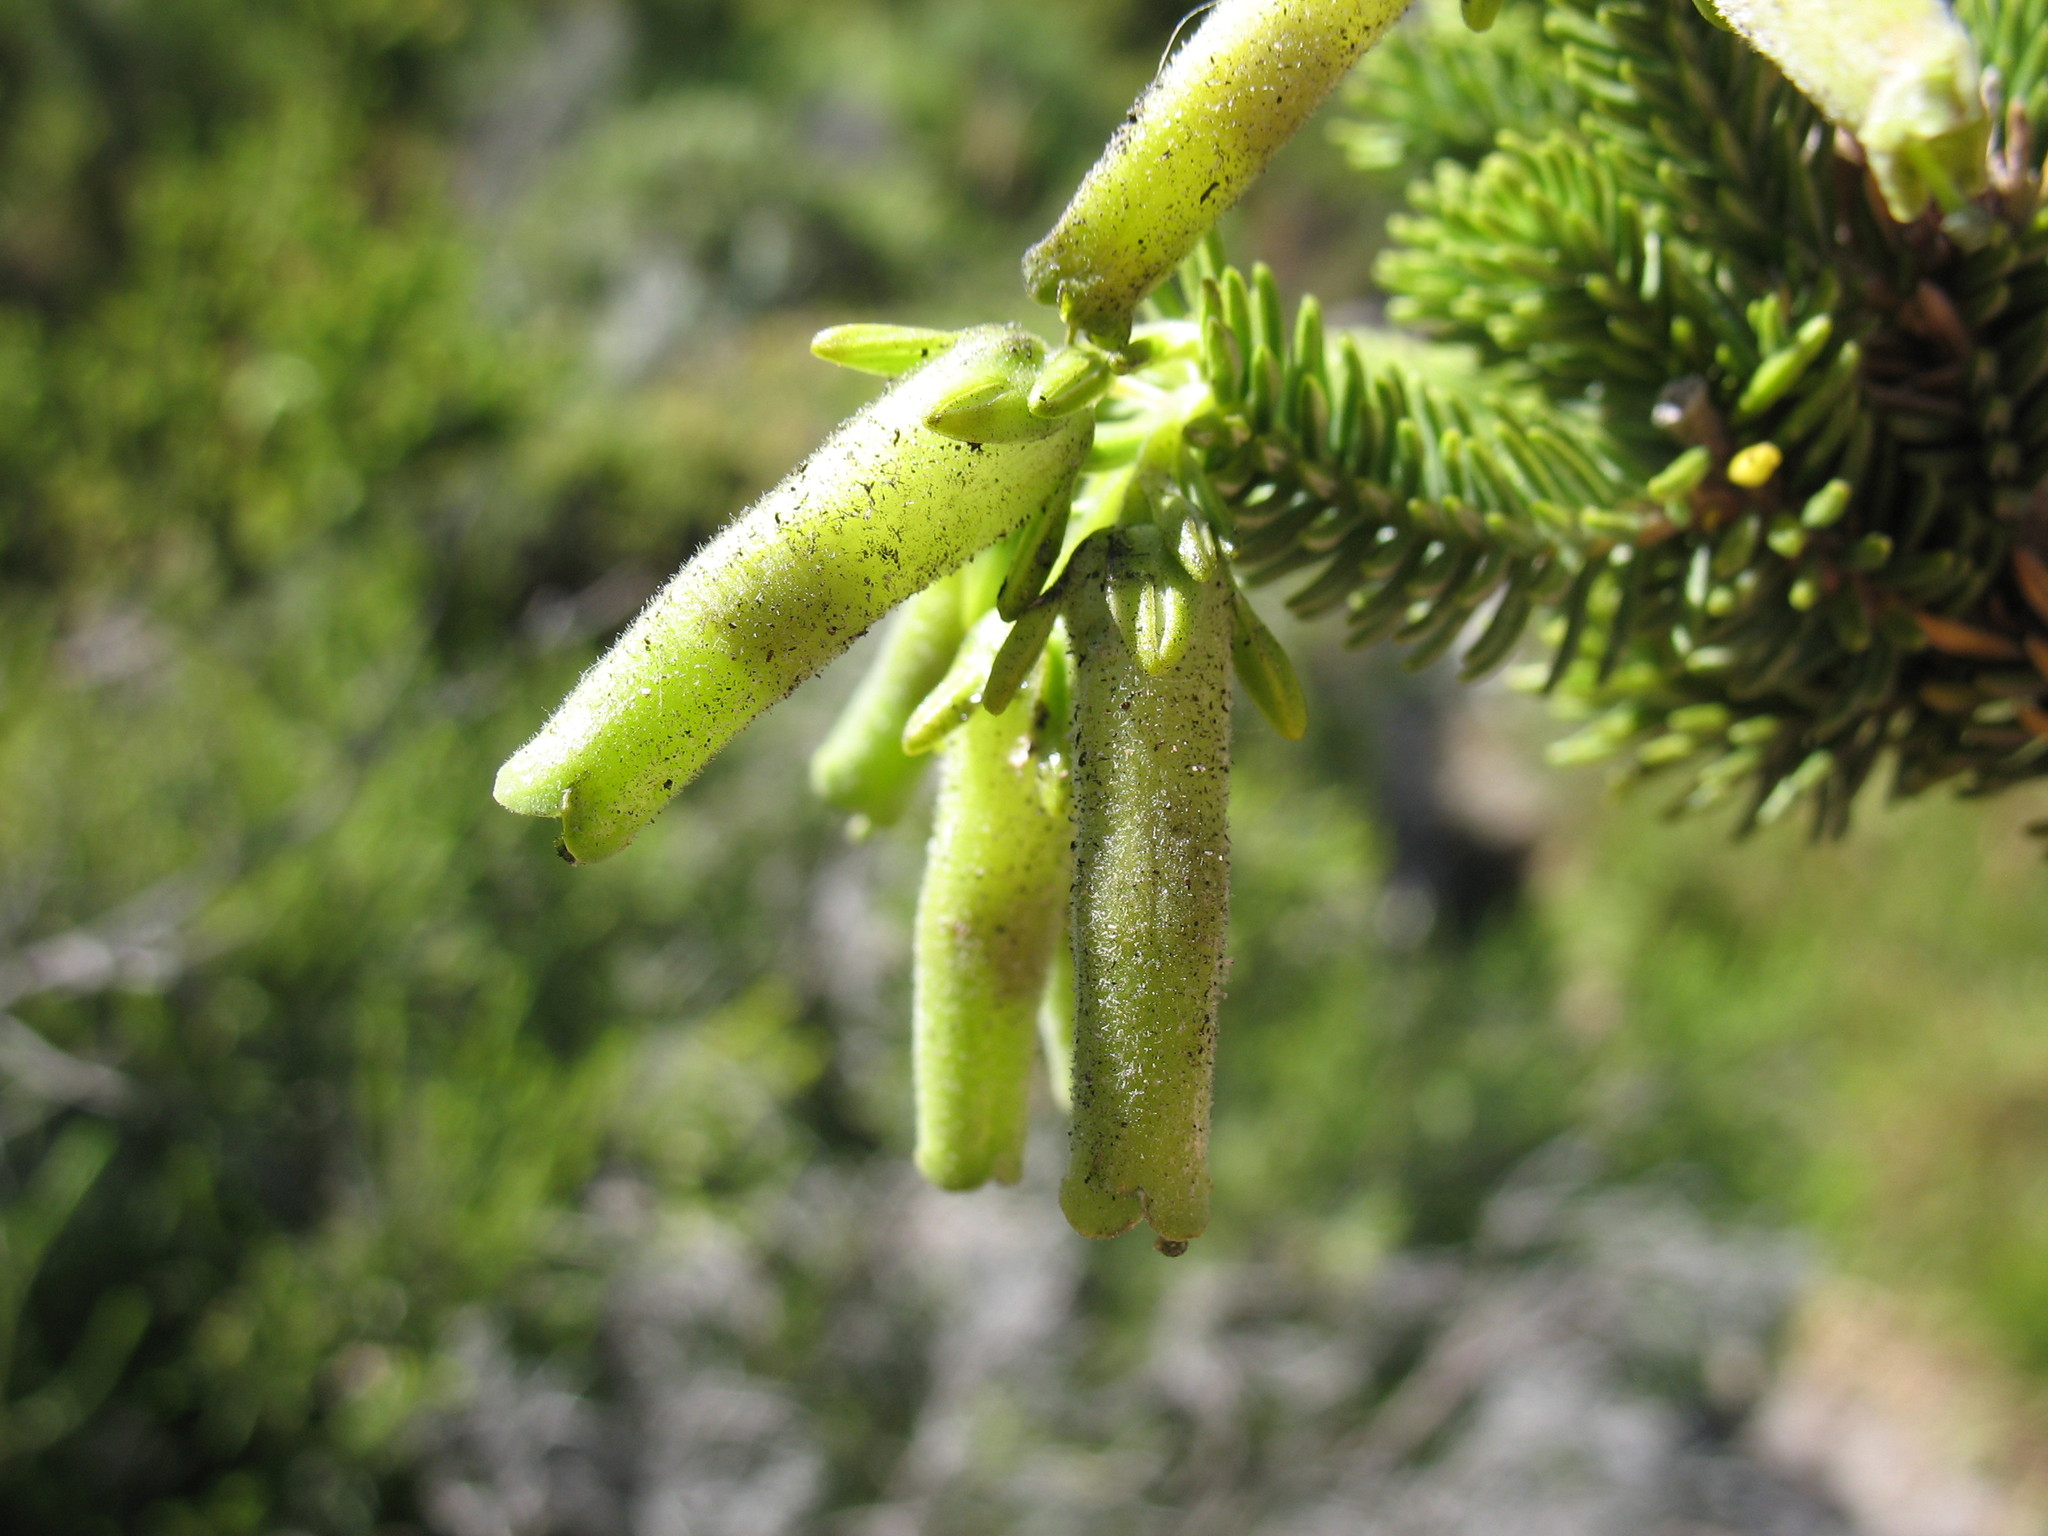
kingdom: Plantae
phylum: Tracheophyta
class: Magnoliopsida
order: Ericales
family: Ericaceae
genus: Erica
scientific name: Erica brachialis
